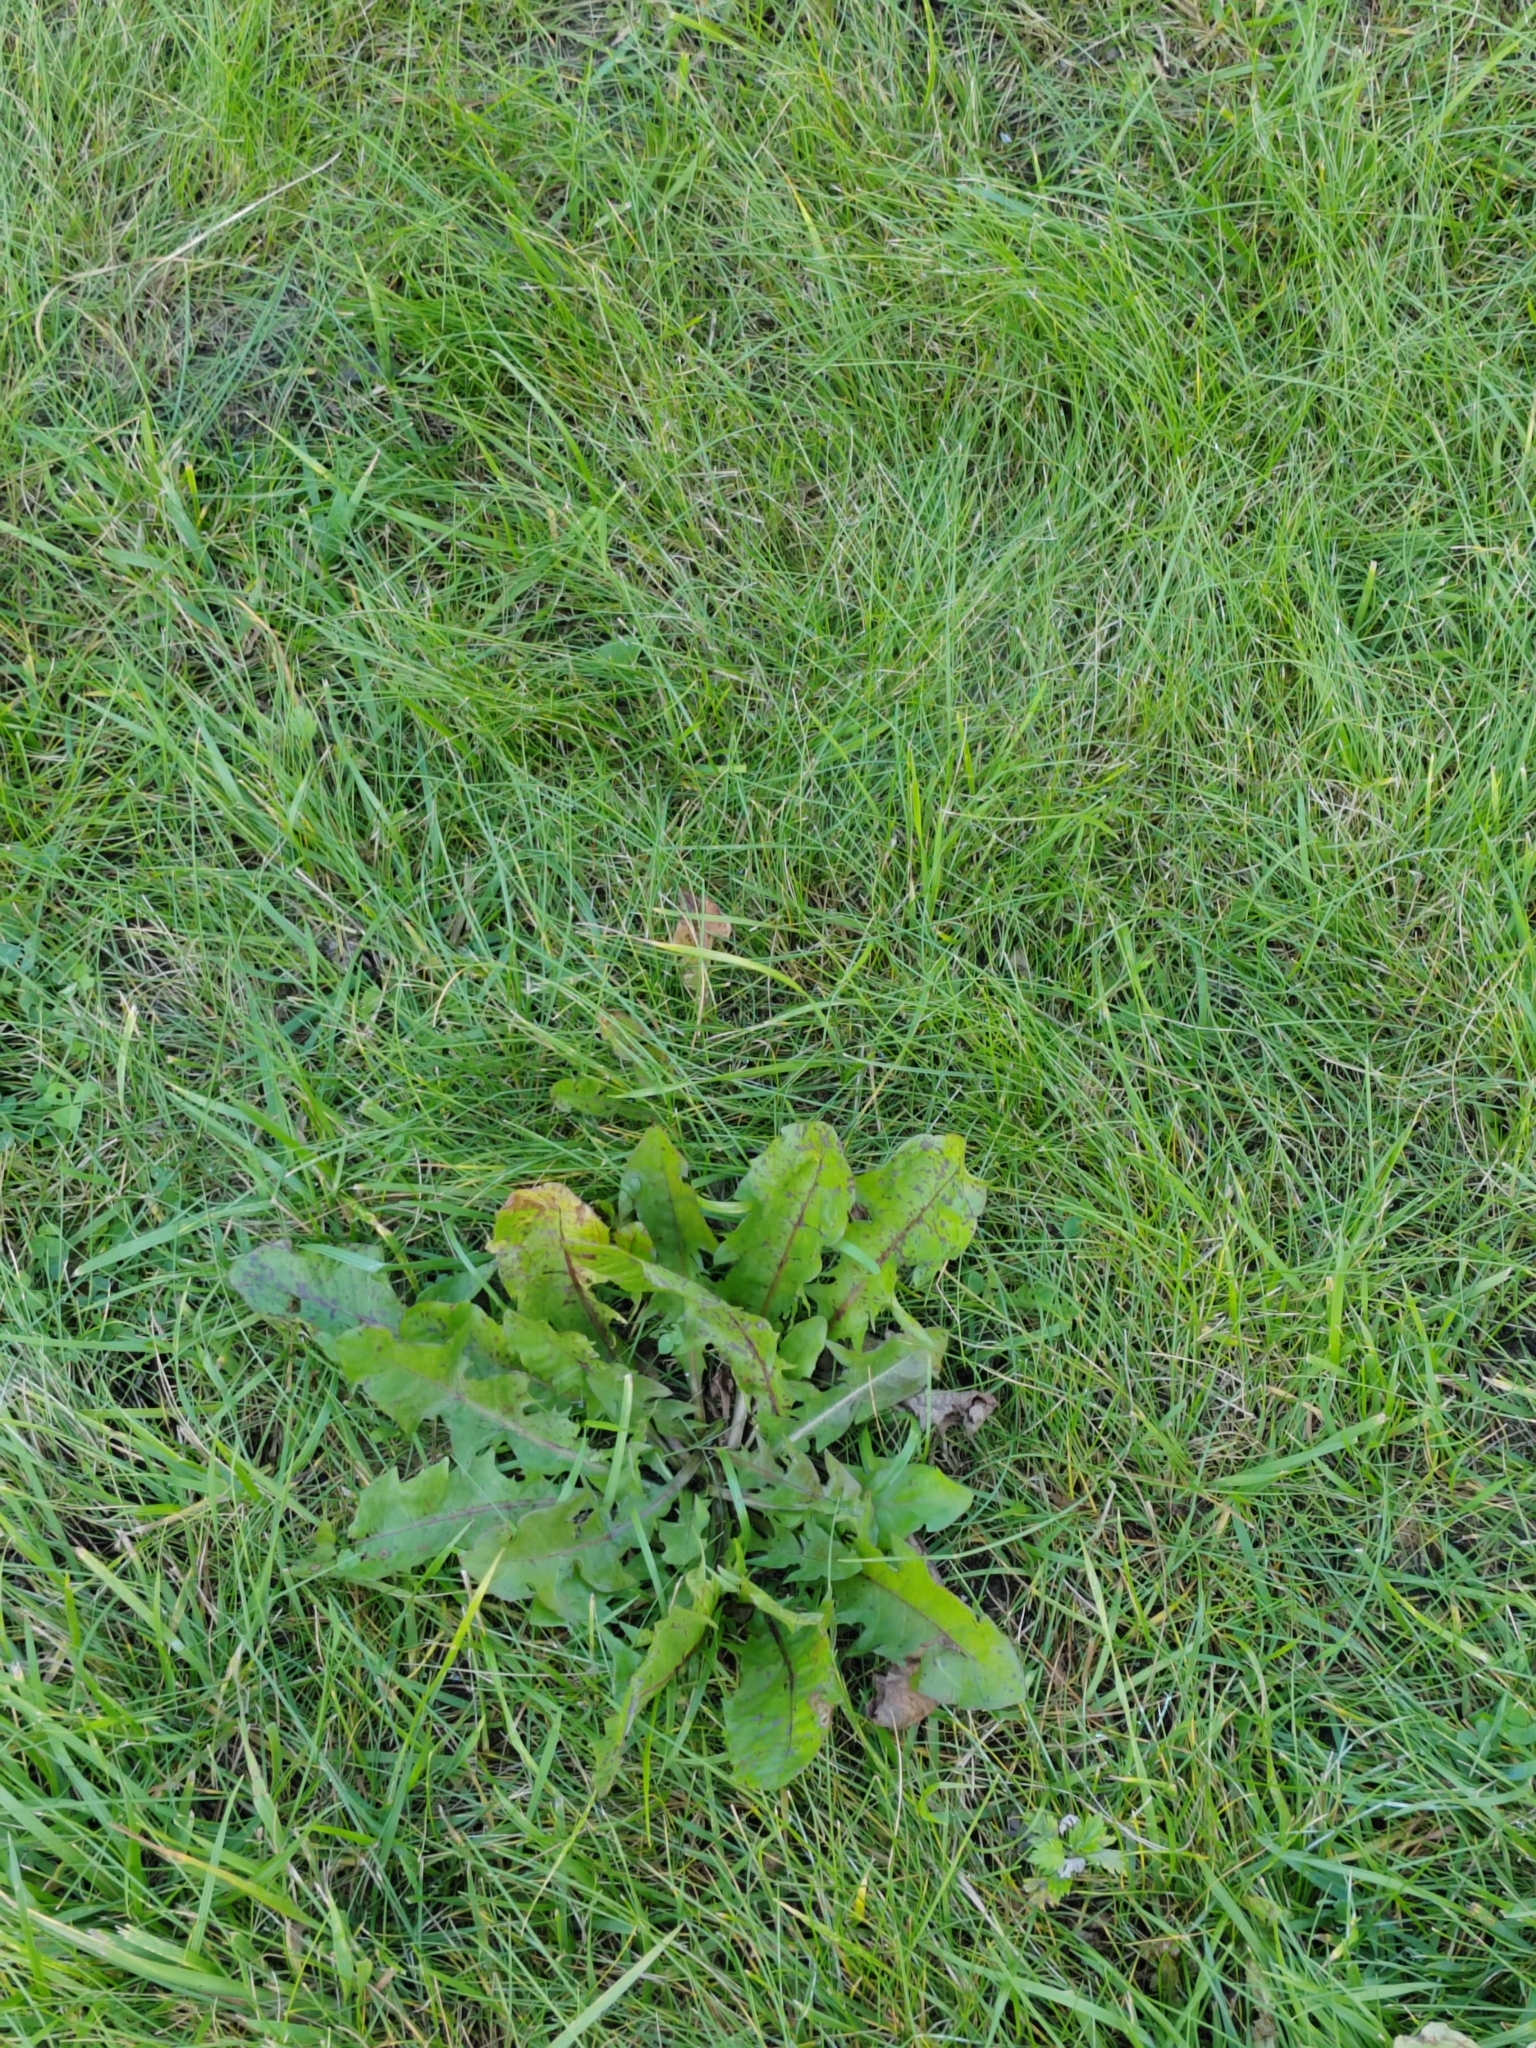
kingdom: Plantae
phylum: Tracheophyta
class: Magnoliopsida
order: Asterales
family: Asteraceae
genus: Taraxacum
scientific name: Taraxacum officinale
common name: Common dandelion
